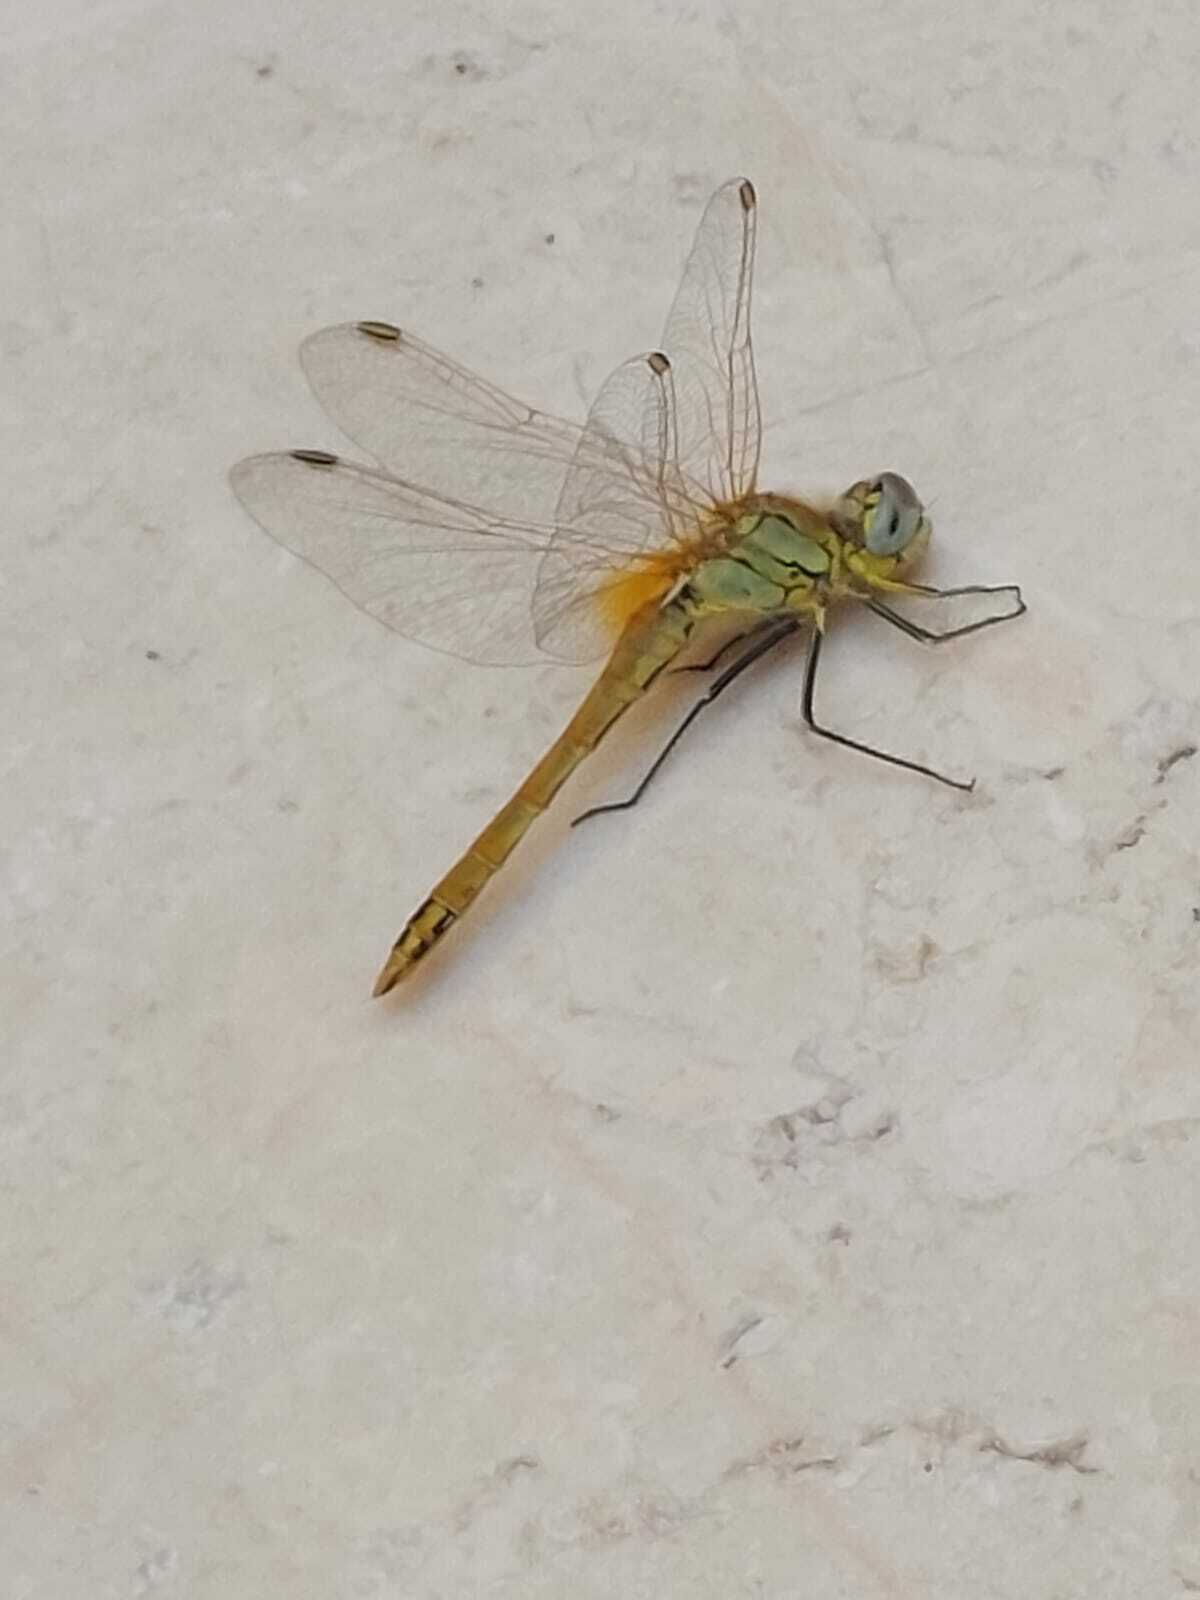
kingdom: Animalia
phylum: Arthropoda
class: Insecta
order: Odonata
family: Libellulidae
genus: Sympetrum
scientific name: Sympetrum fonscolombii
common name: Red-veined darter
